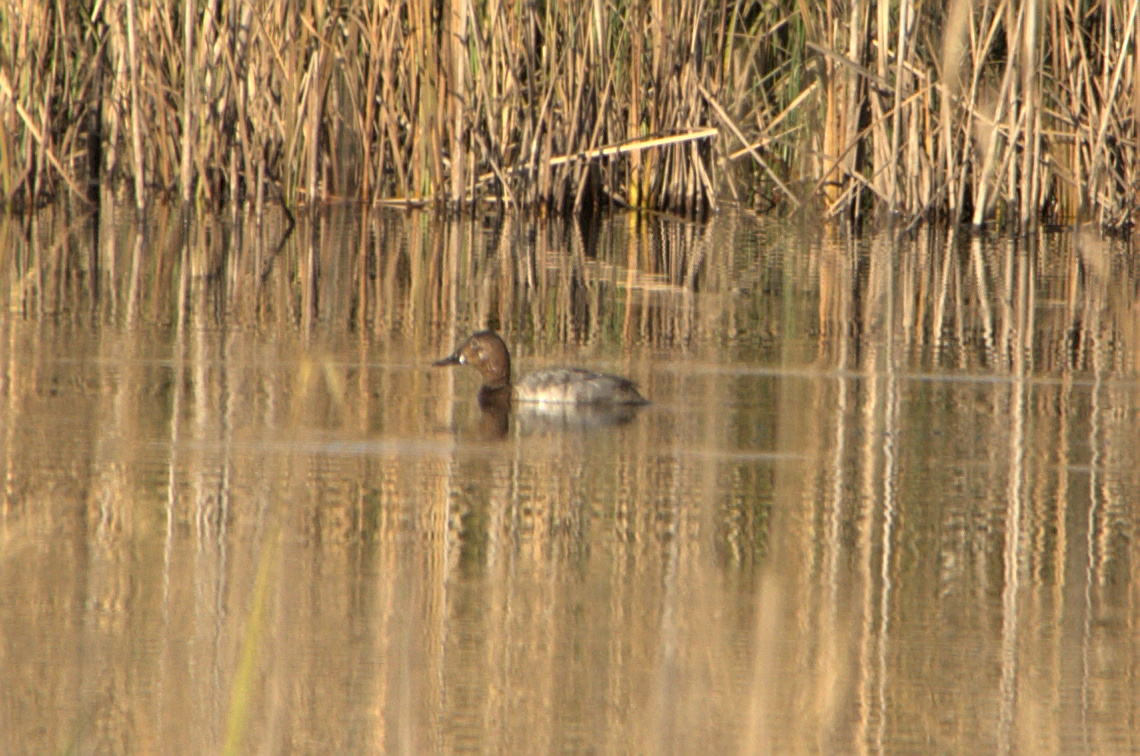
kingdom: Animalia
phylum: Chordata
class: Aves
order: Anseriformes
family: Anatidae
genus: Aythya
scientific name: Aythya ferina
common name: Common pochard
